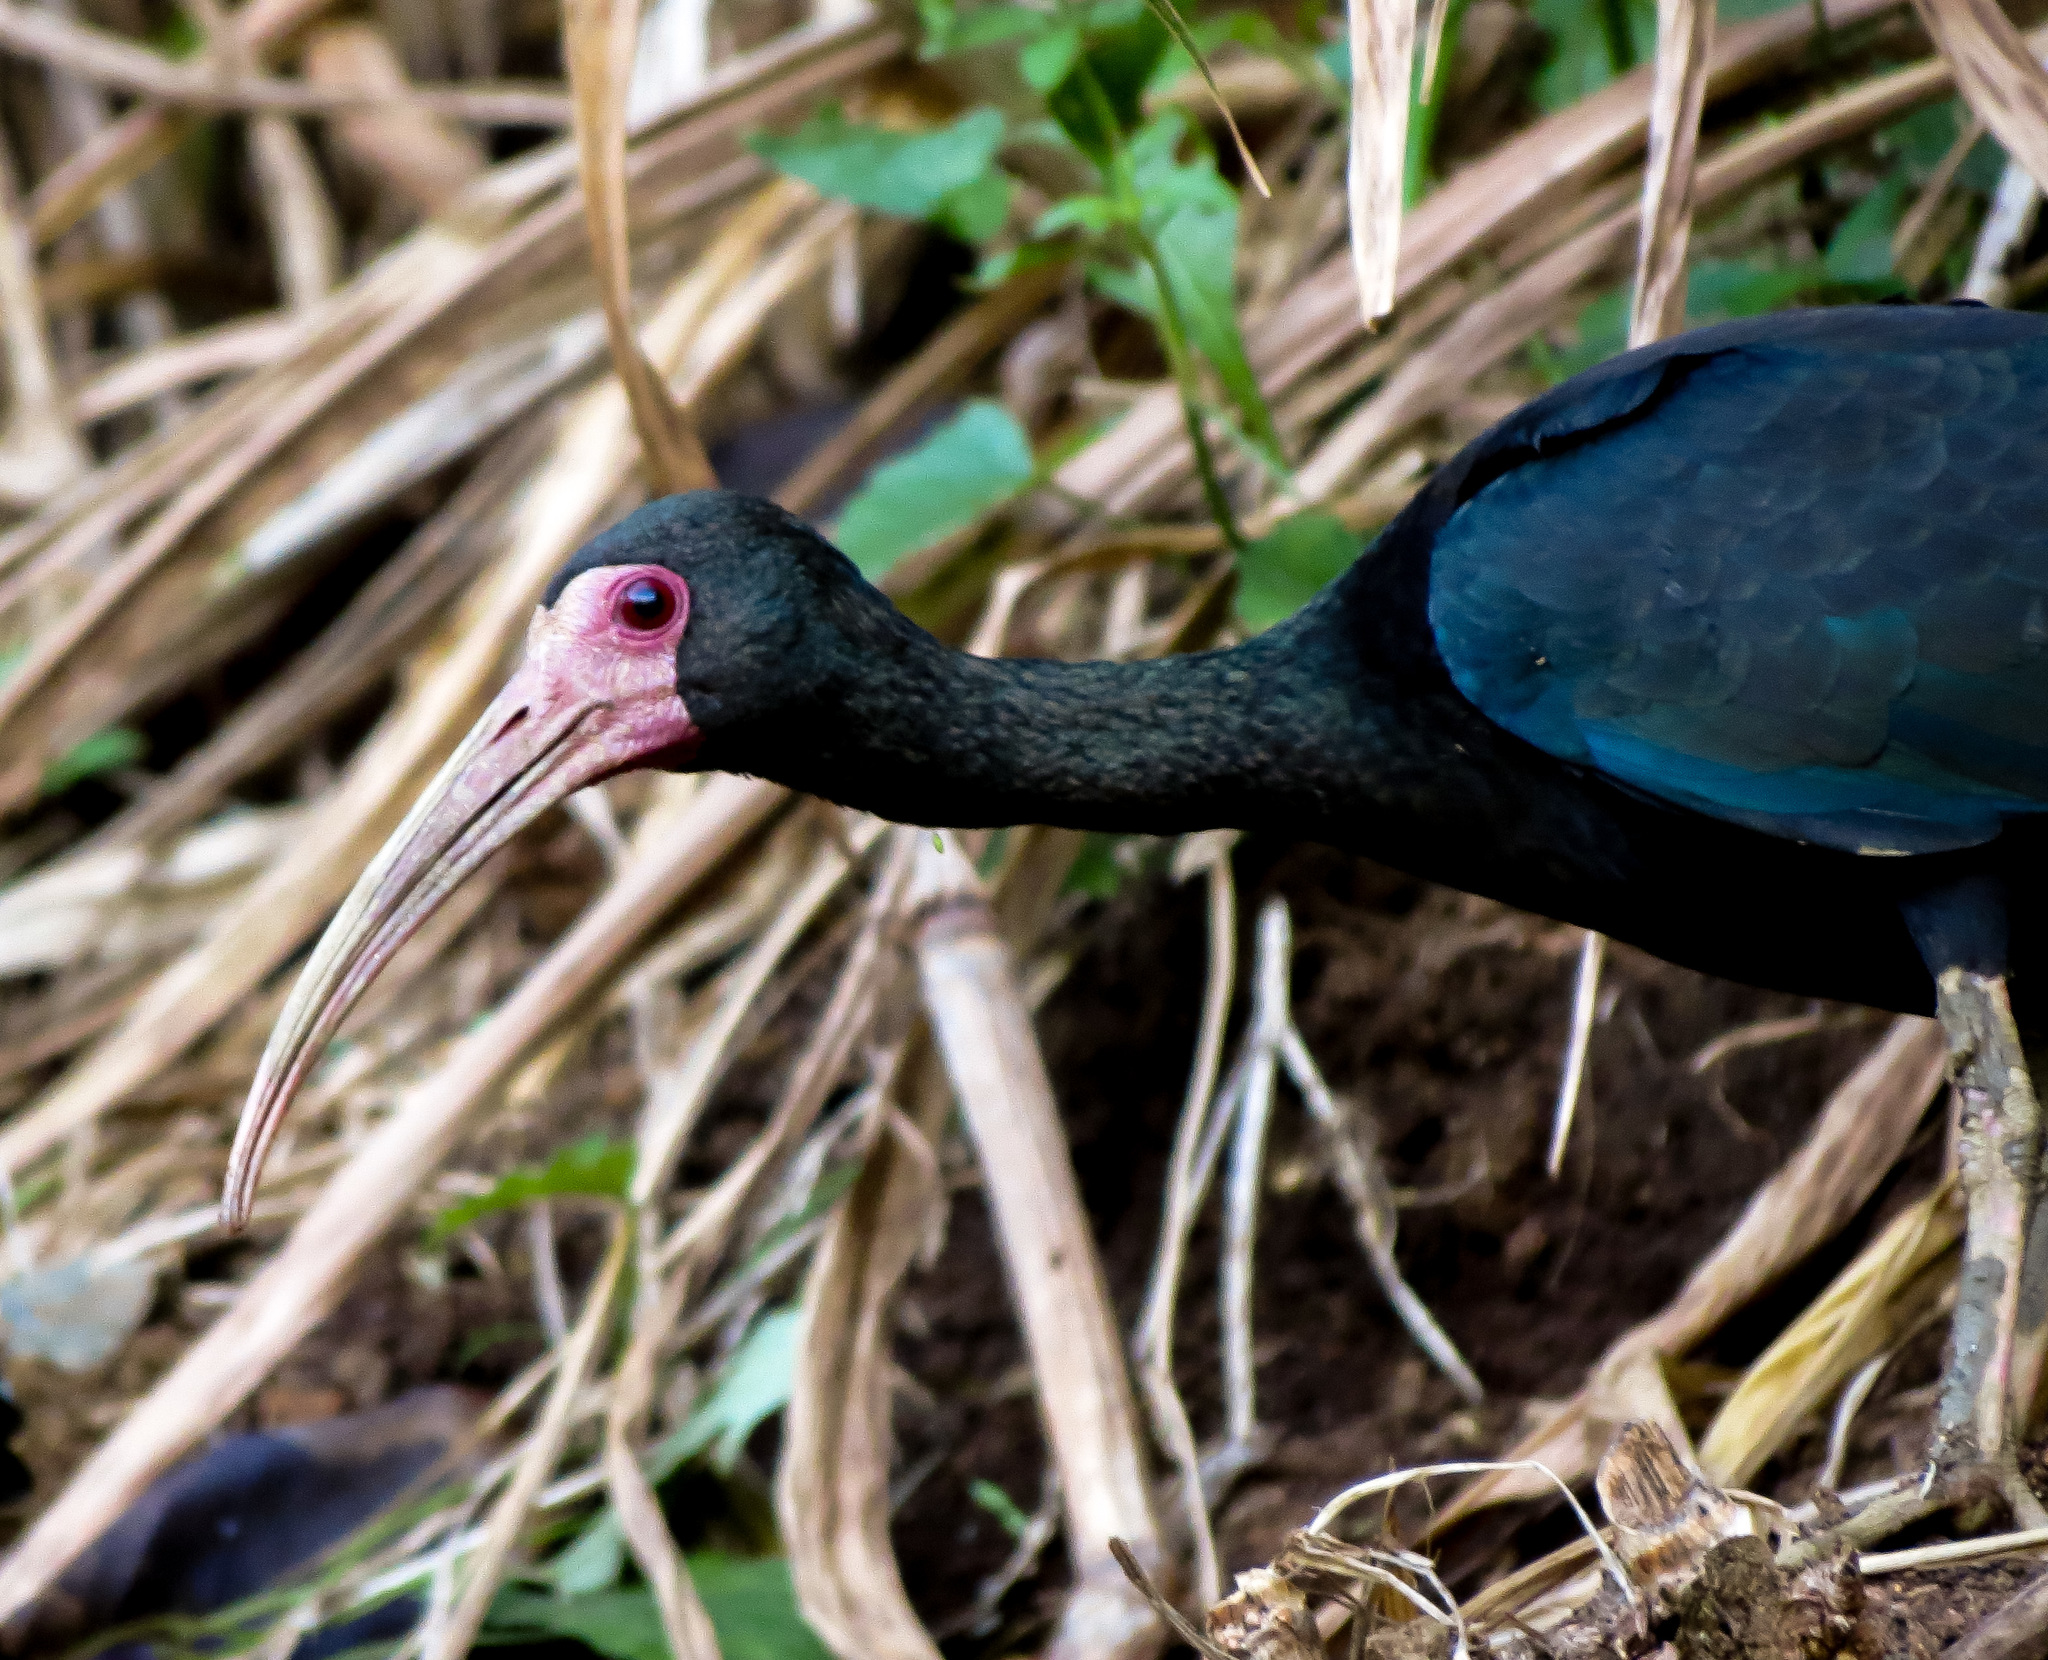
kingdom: Animalia
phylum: Chordata
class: Aves
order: Pelecaniformes
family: Threskiornithidae
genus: Phimosus
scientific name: Phimosus infuscatus
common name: Bare-faced ibis
